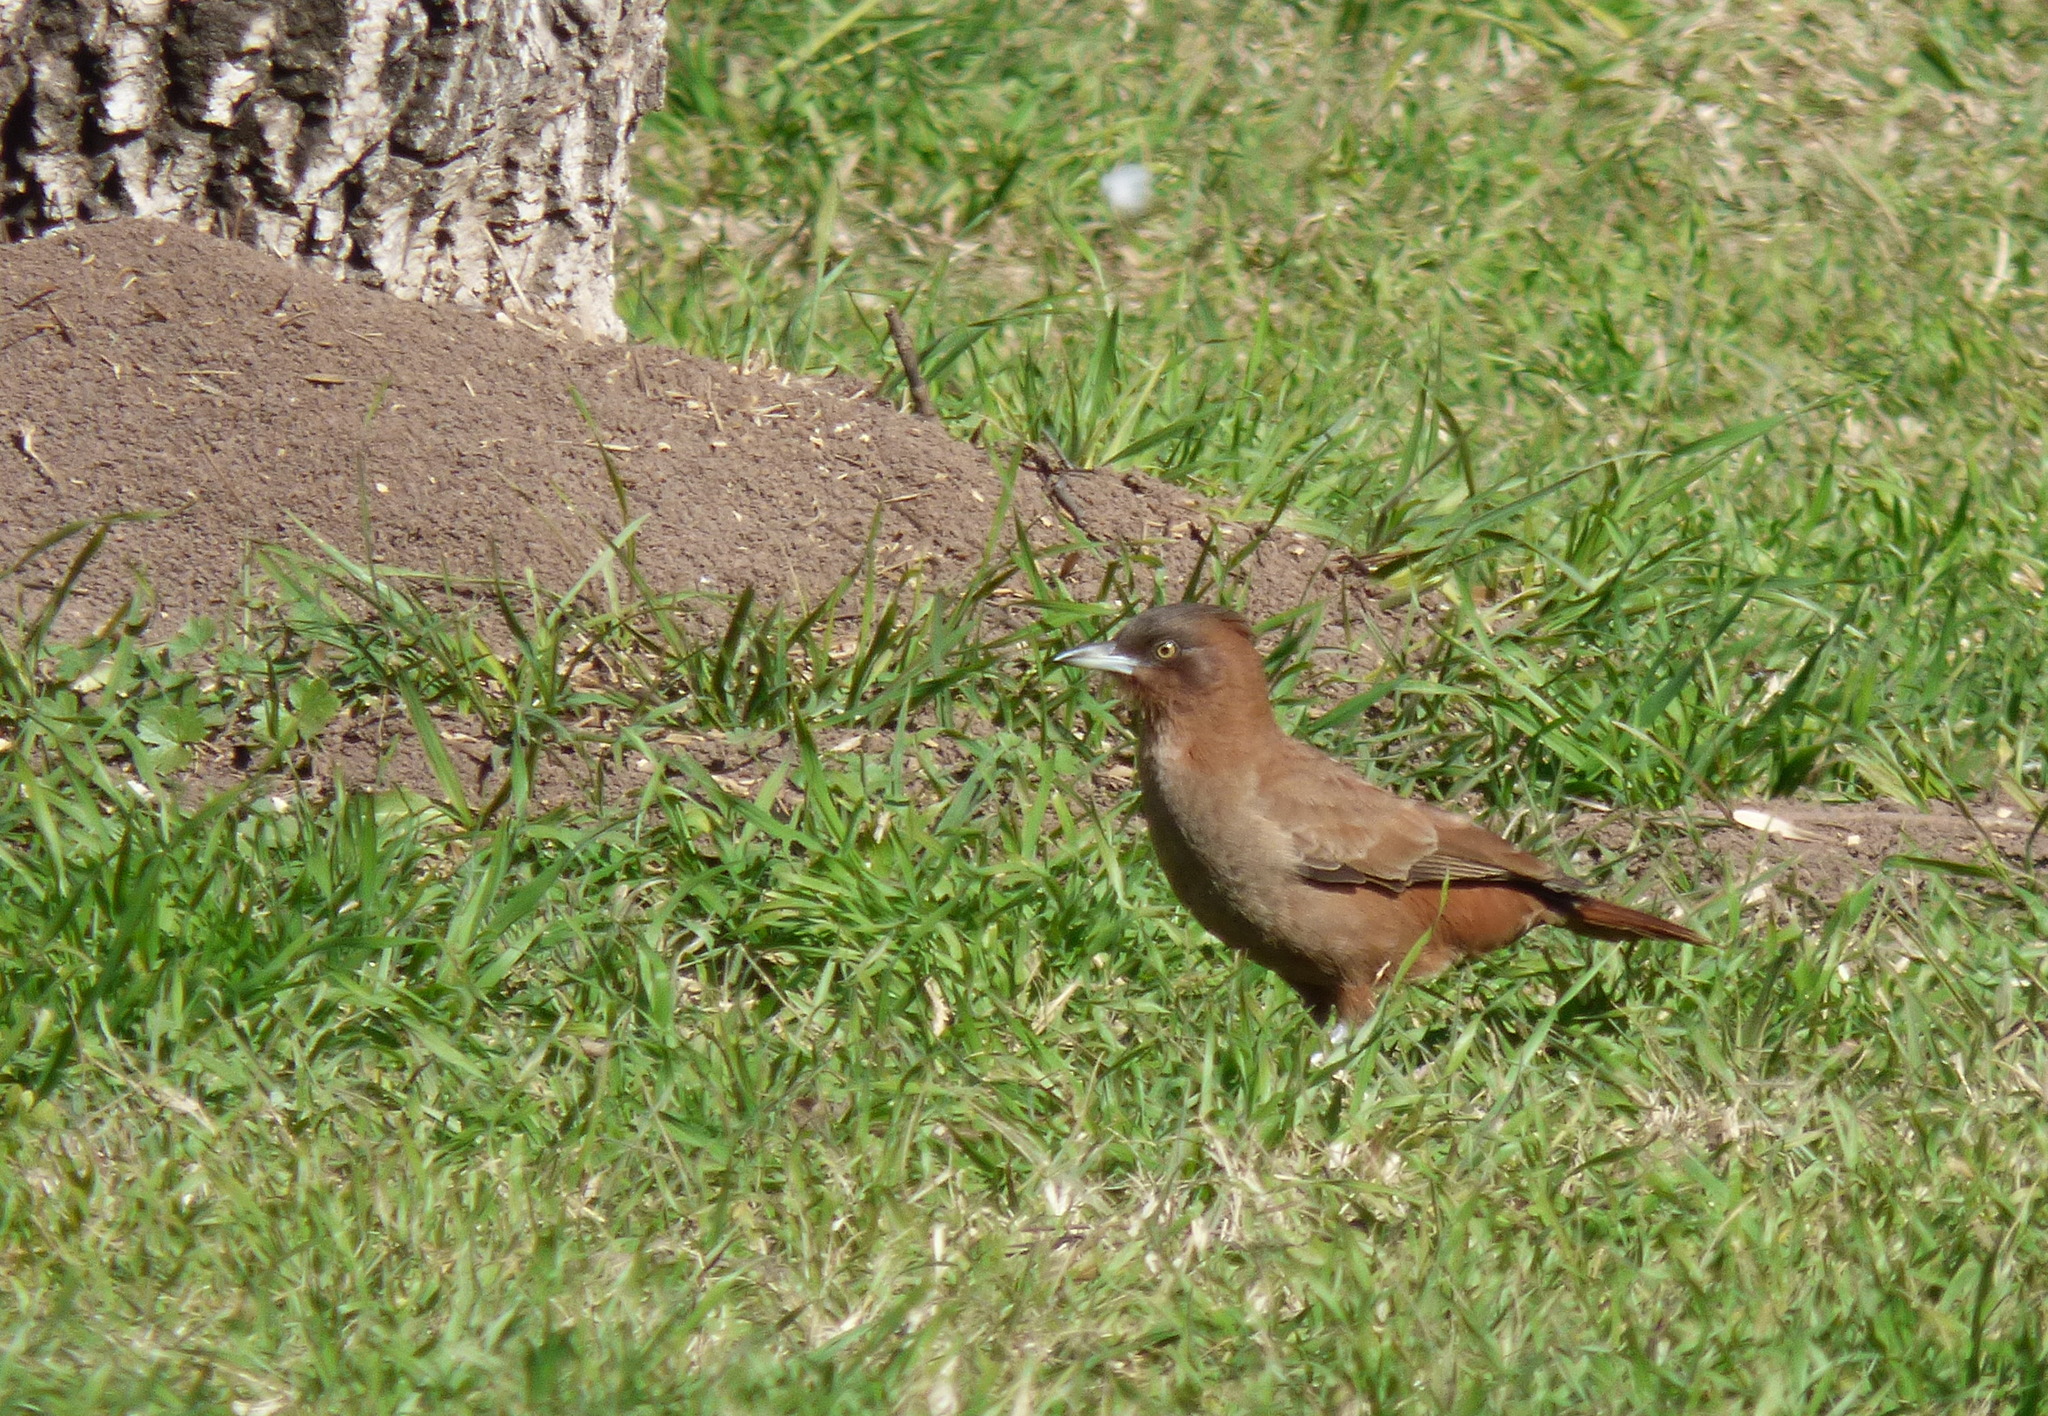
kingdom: Animalia
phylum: Chordata
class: Aves
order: Passeriformes
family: Furnariidae
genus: Pseudoseisura
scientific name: Pseudoseisura lophotes
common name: Brown cacholote
